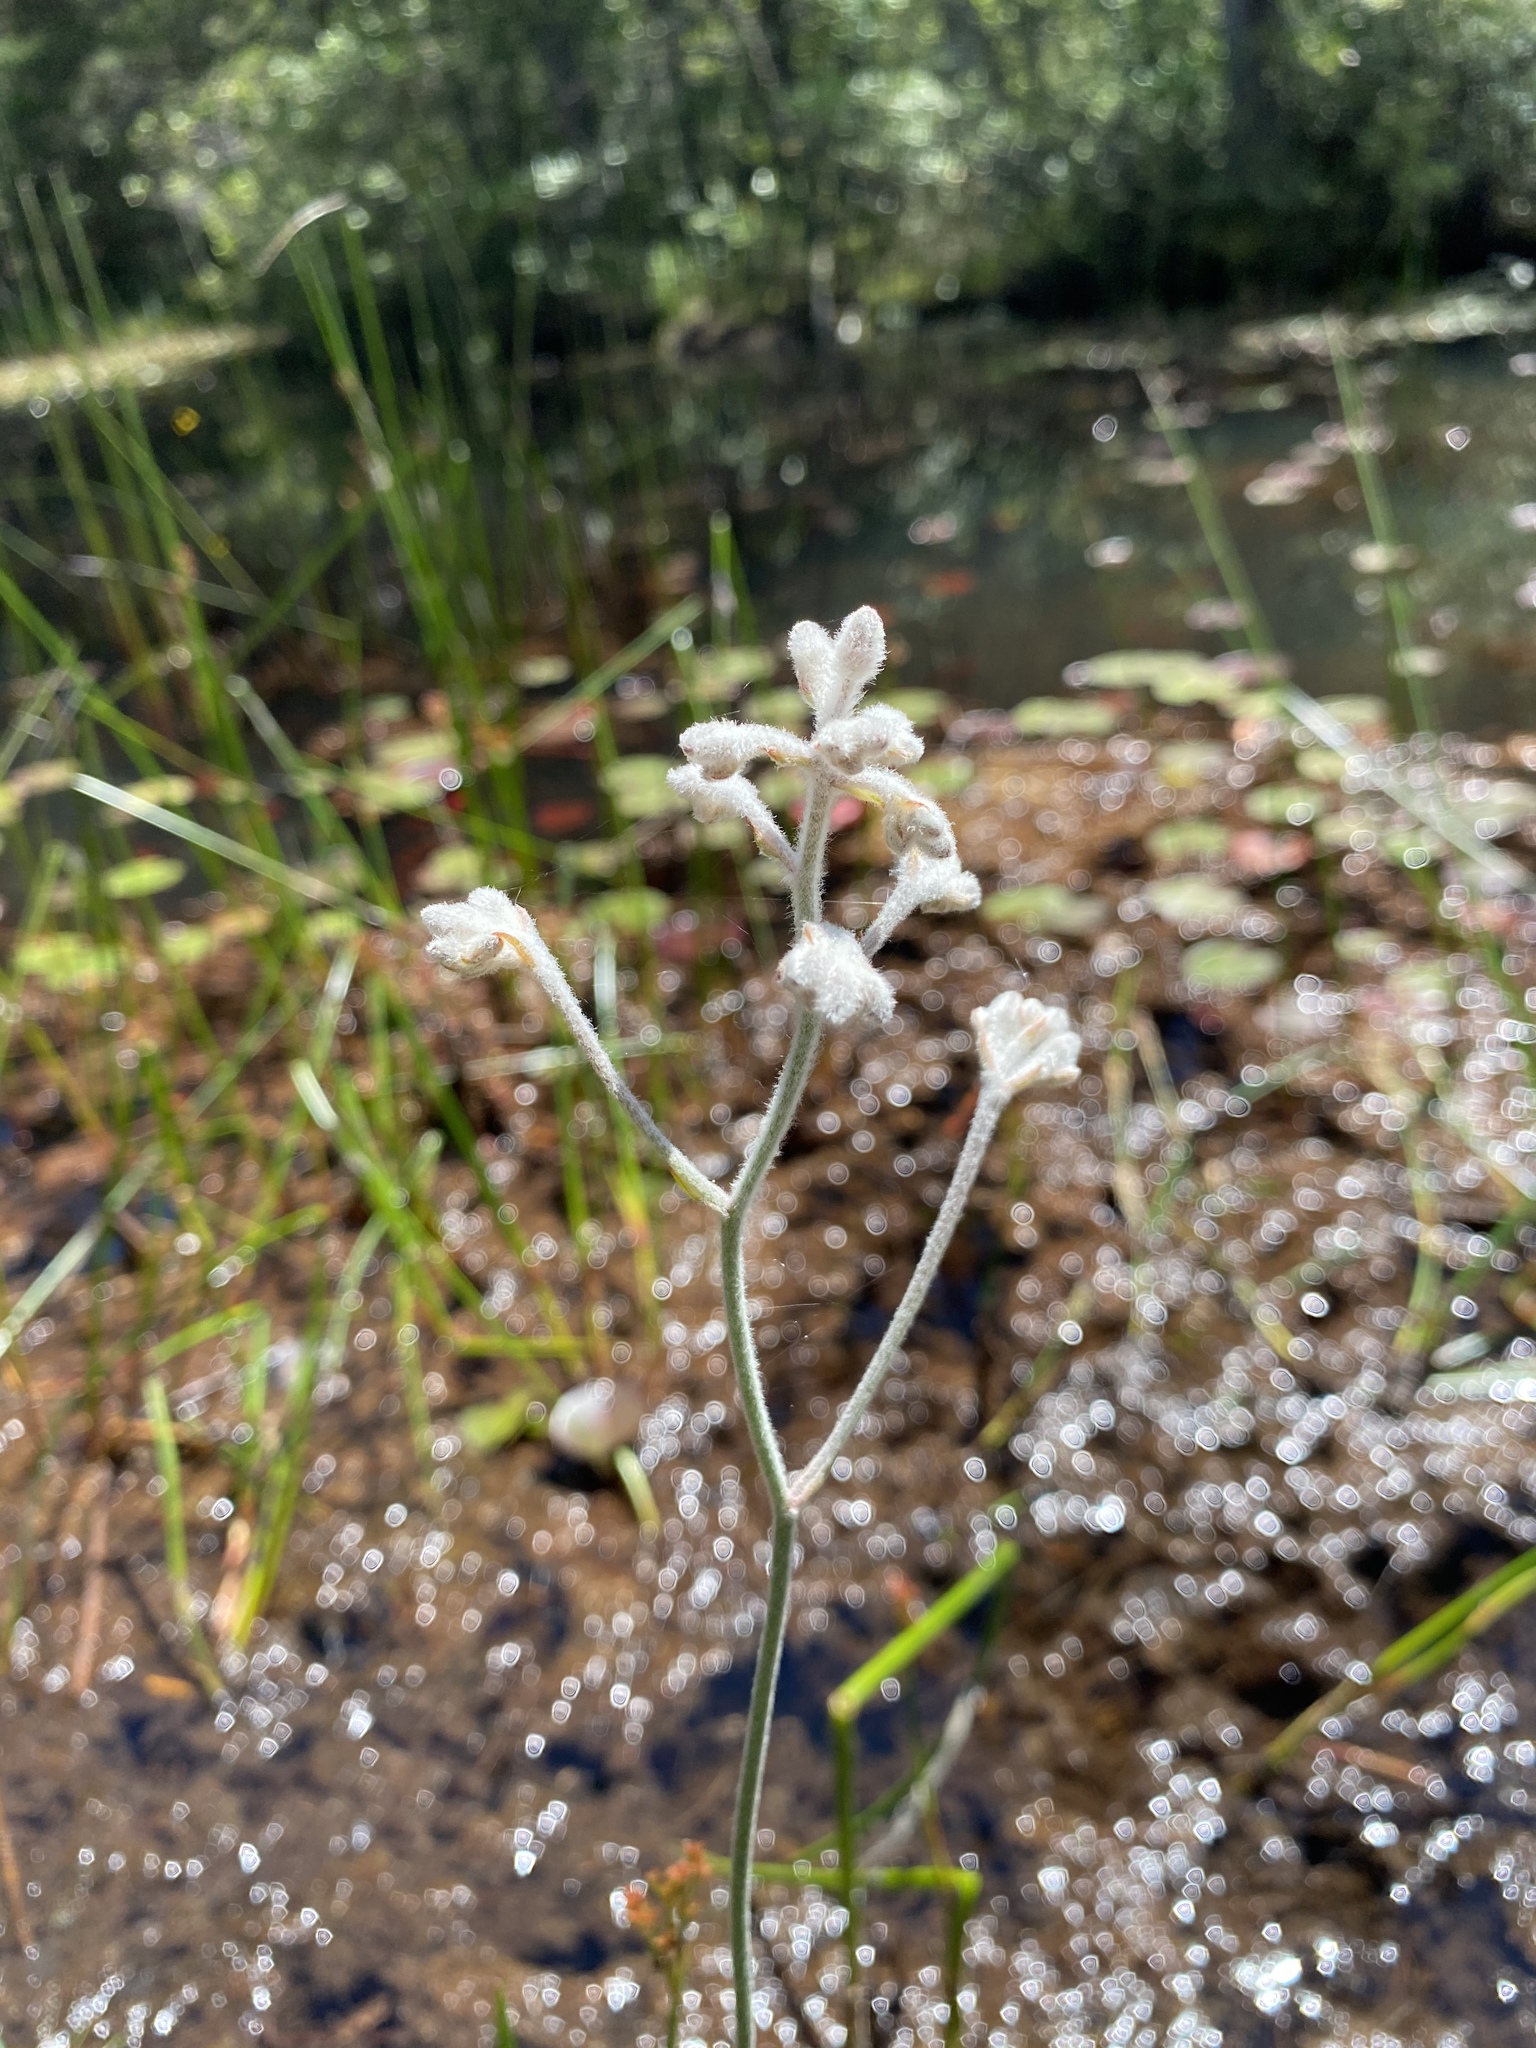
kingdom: Plantae
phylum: Tracheophyta
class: Liliopsida
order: Dioscoreales
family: Nartheciaceae
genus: Lophiola
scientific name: Lophiola aurea
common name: Golden-crest
